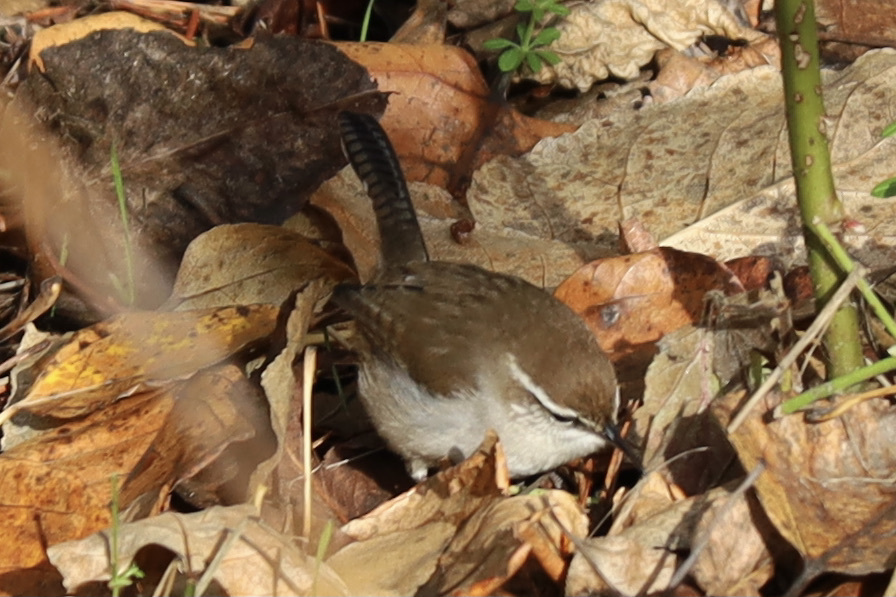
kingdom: Animalia
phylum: Chordata
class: Aves
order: Passeriformes
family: Troglodytidae
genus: Thryomanes
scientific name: Thryomanes bewickii
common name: Bewick's wren
